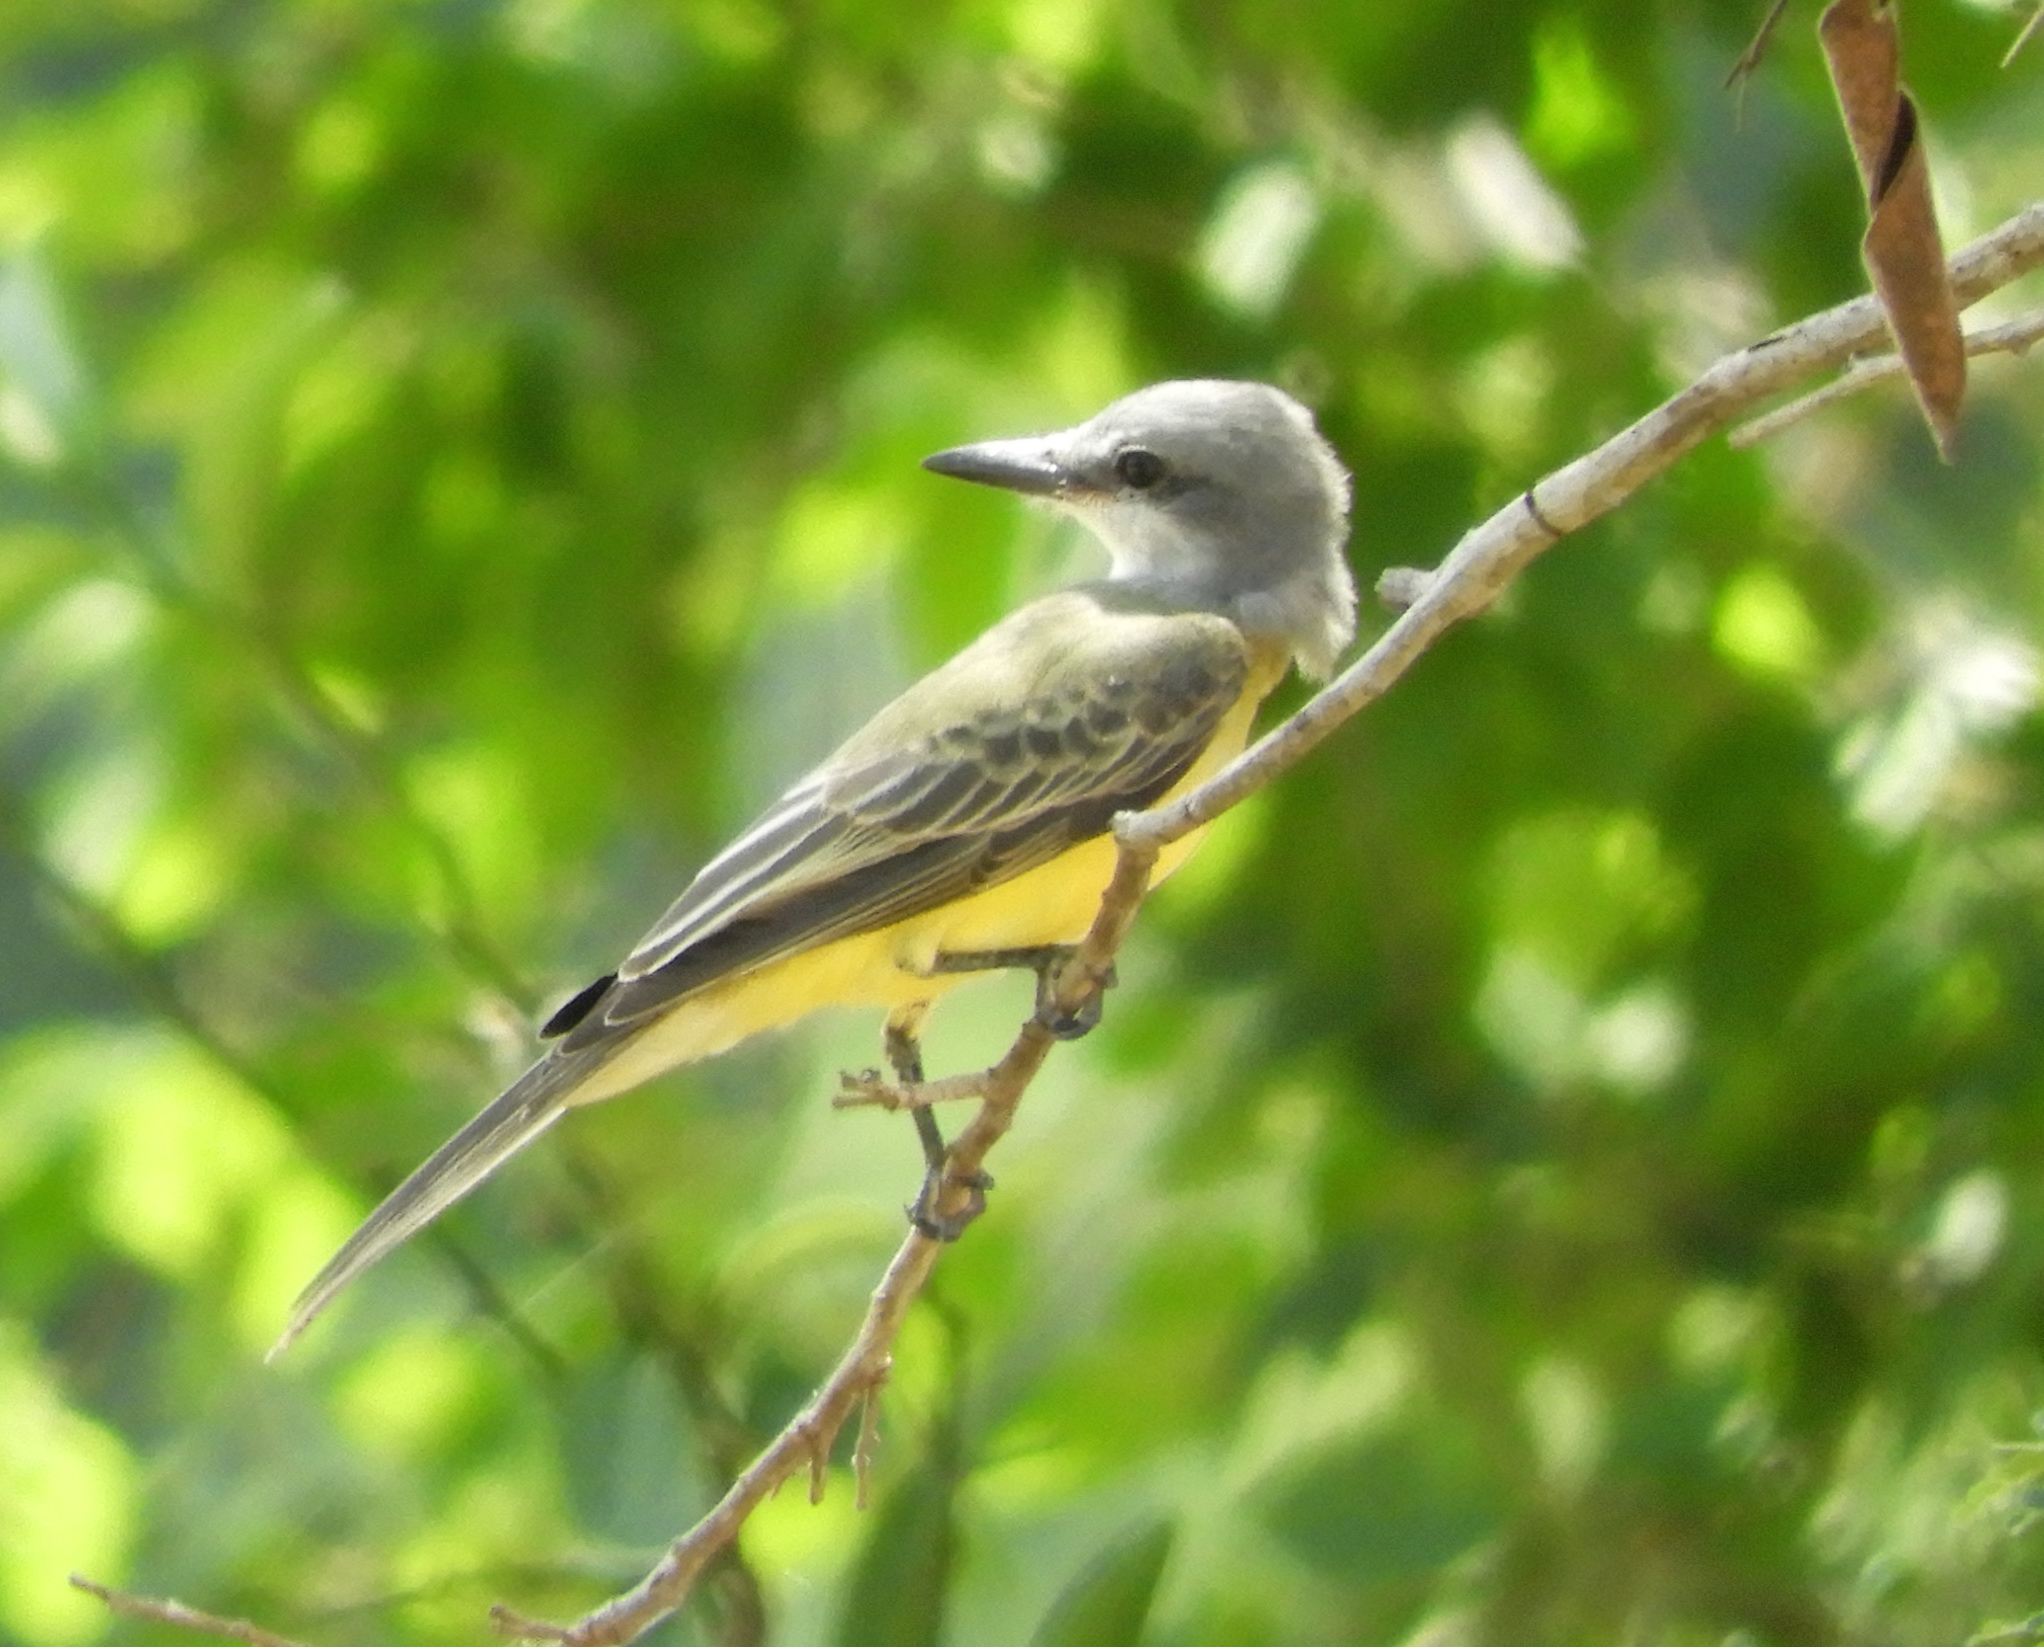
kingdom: Animalia
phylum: Chordata
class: Aves
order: Passeriformes
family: Tyrannidae
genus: Tyrannus
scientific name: Tyrannus melancholicus
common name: Tropical kingbird
